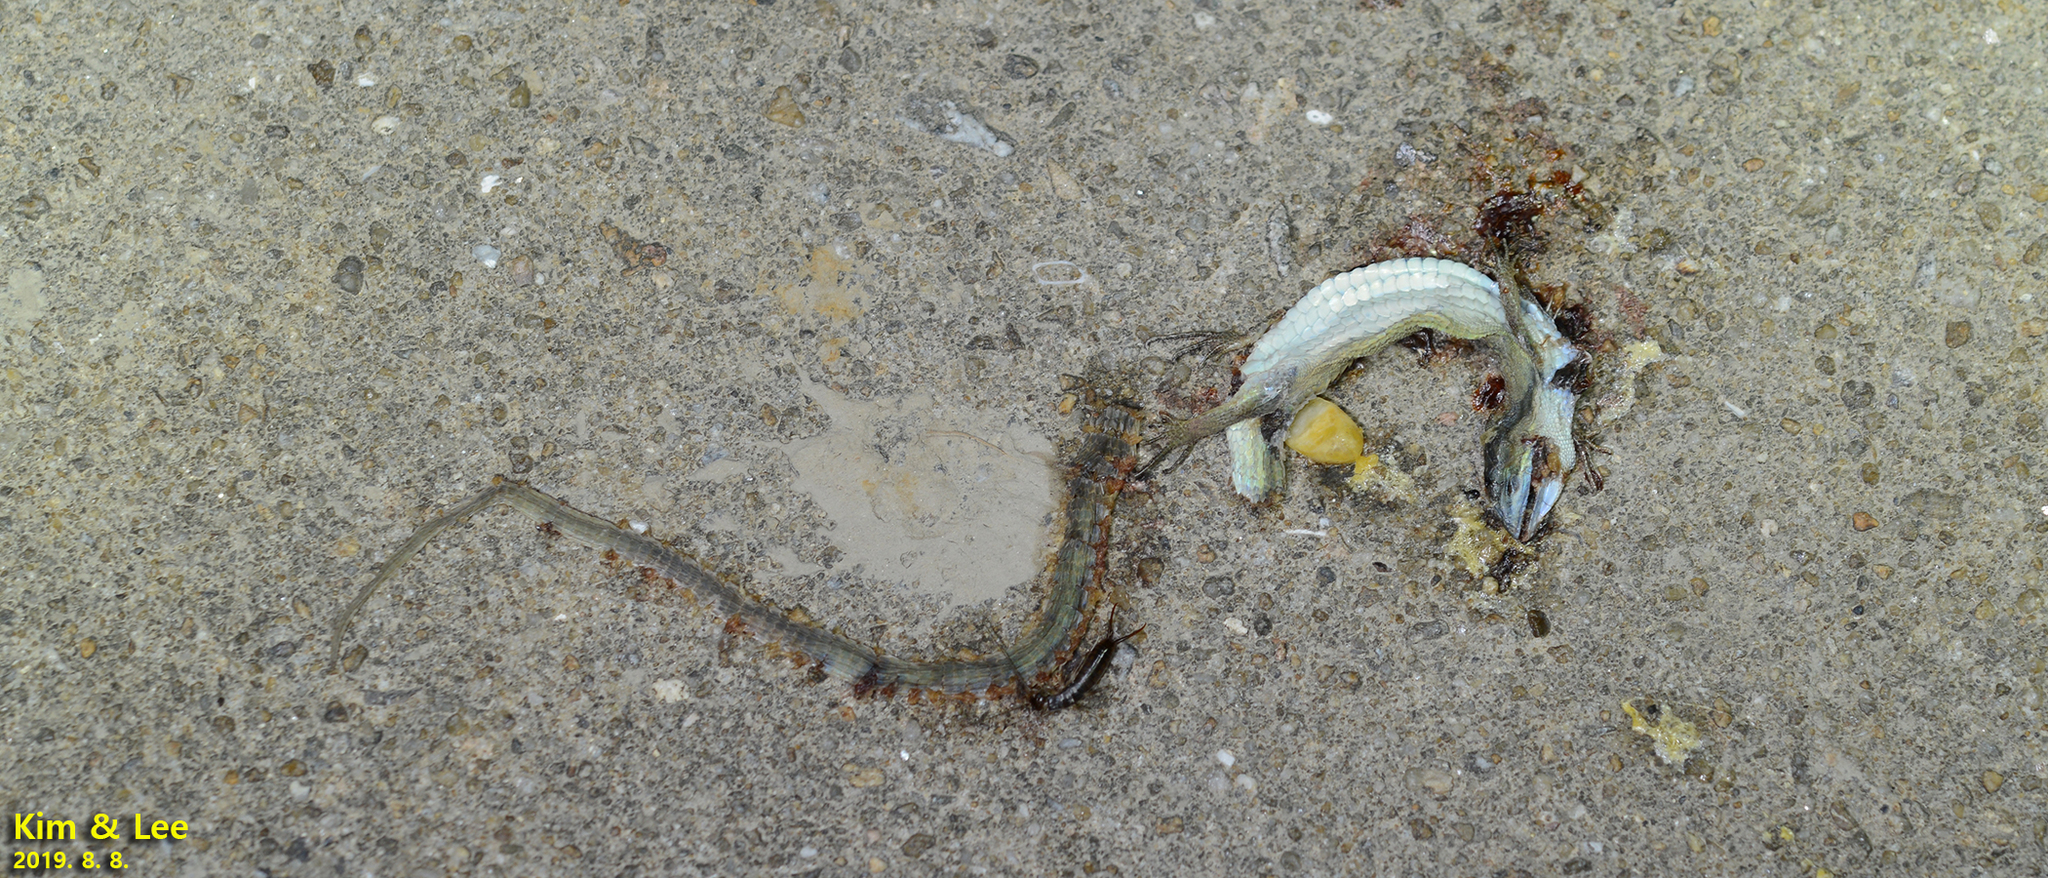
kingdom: Animalia
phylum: Chordata
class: Squamata
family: Lacertidae
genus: Takydromus
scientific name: Takydromus wolteri
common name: Mountain grass lizard
